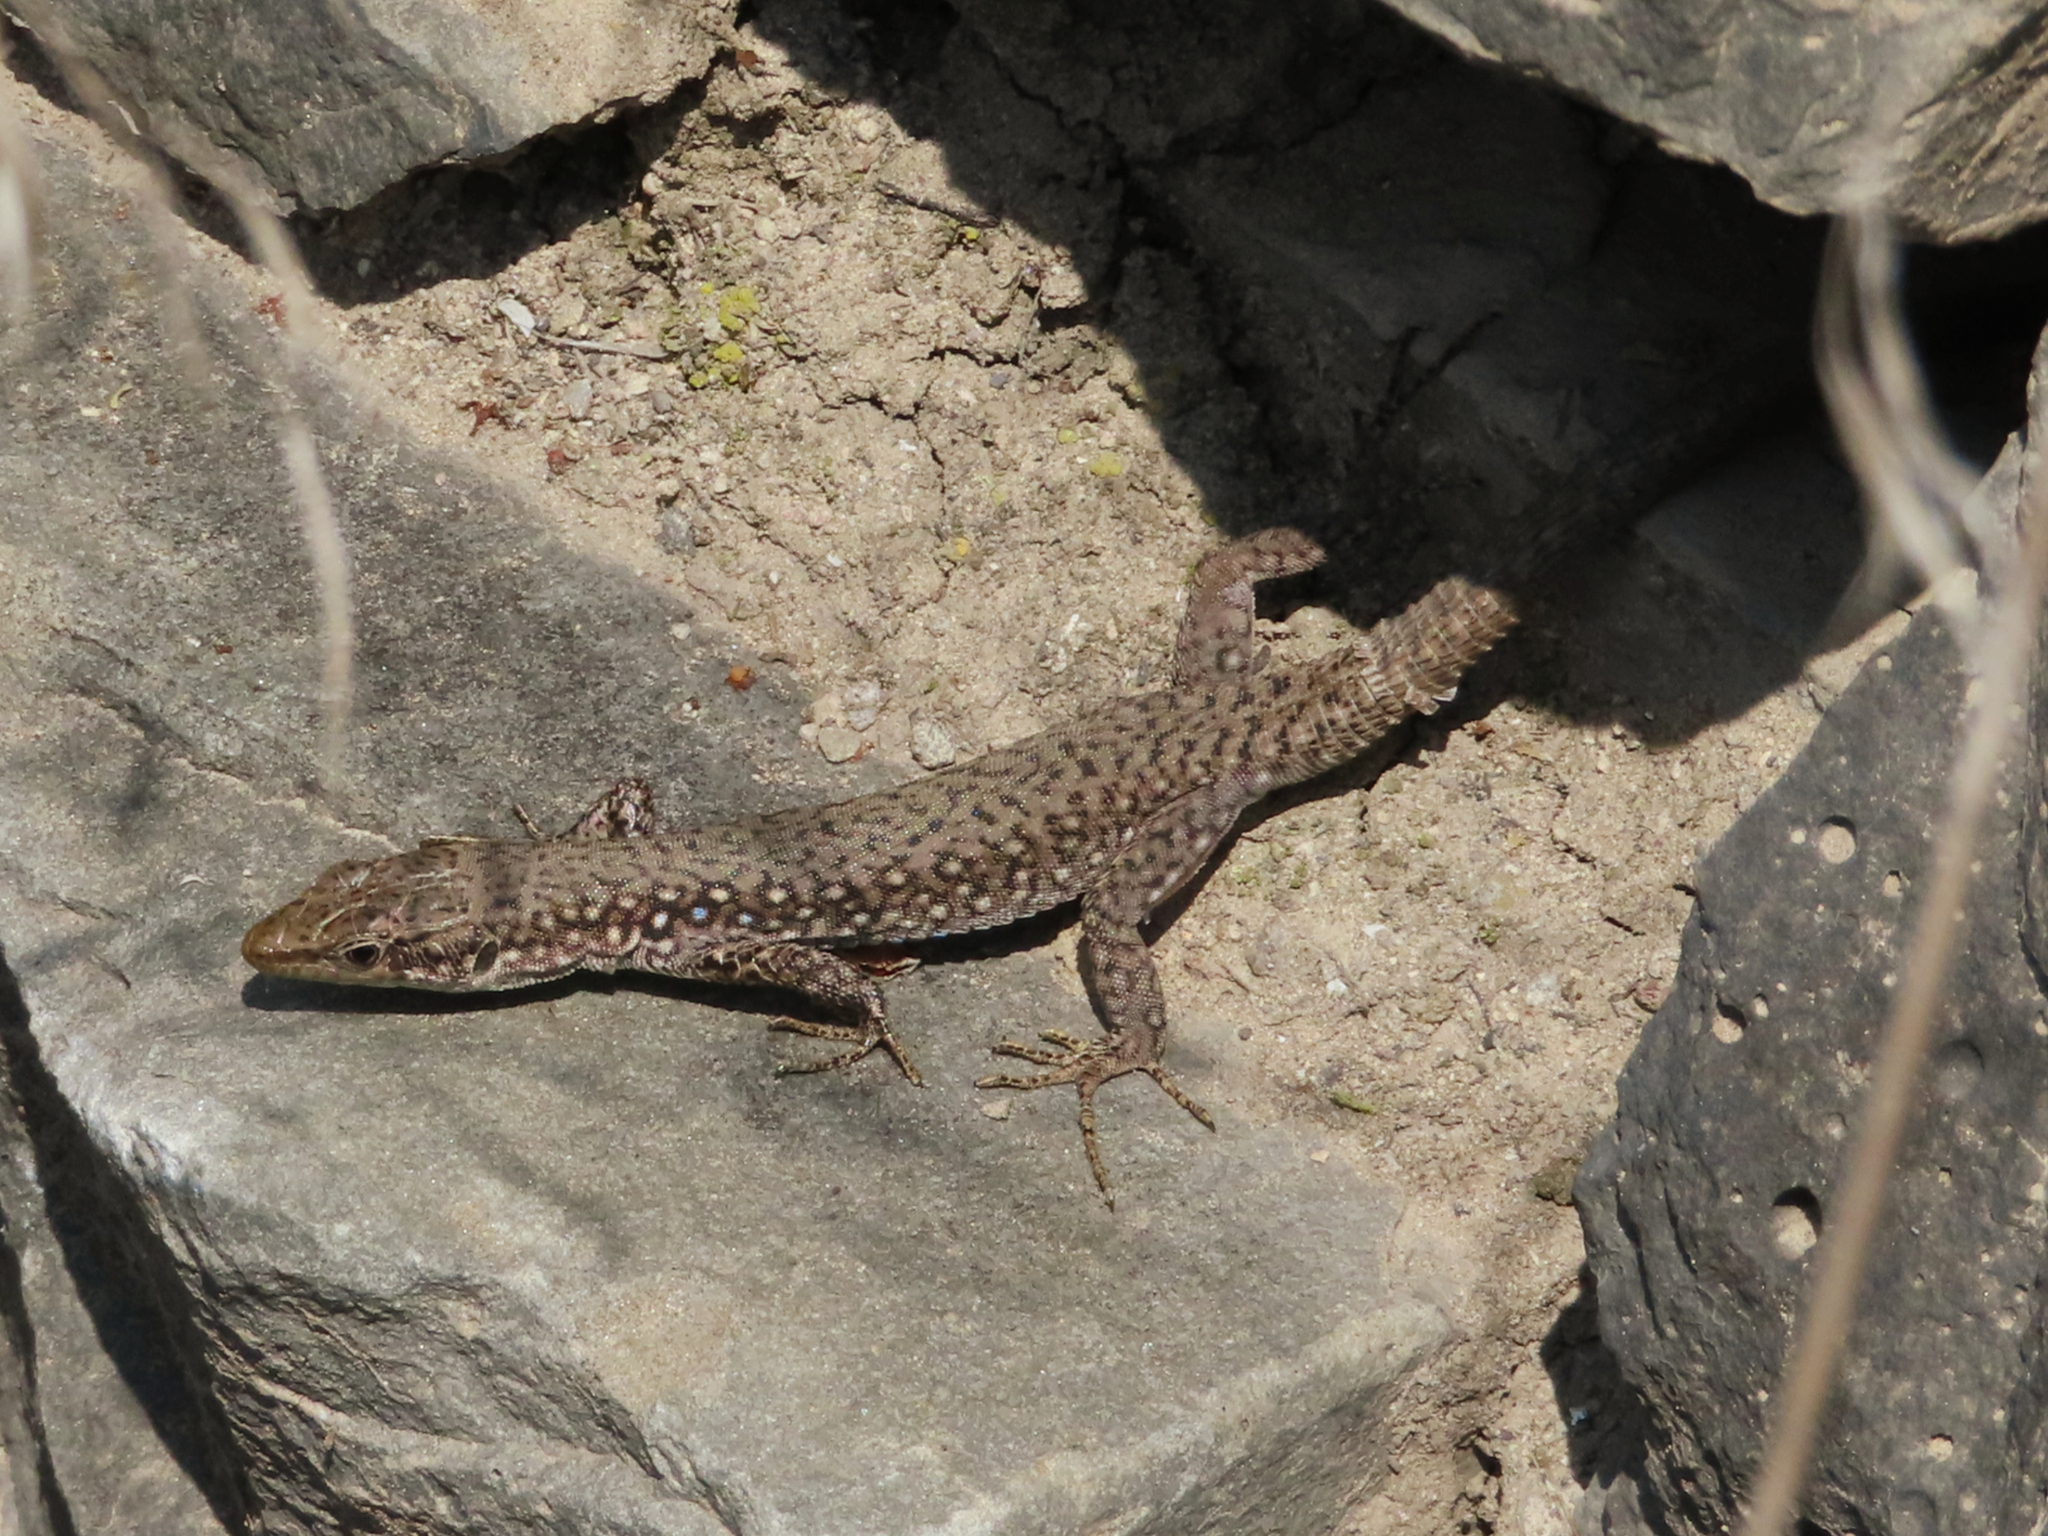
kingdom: Animalia
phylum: Chordata
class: Squamata
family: Lacertidae
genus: Darevskia
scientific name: Darevskia
